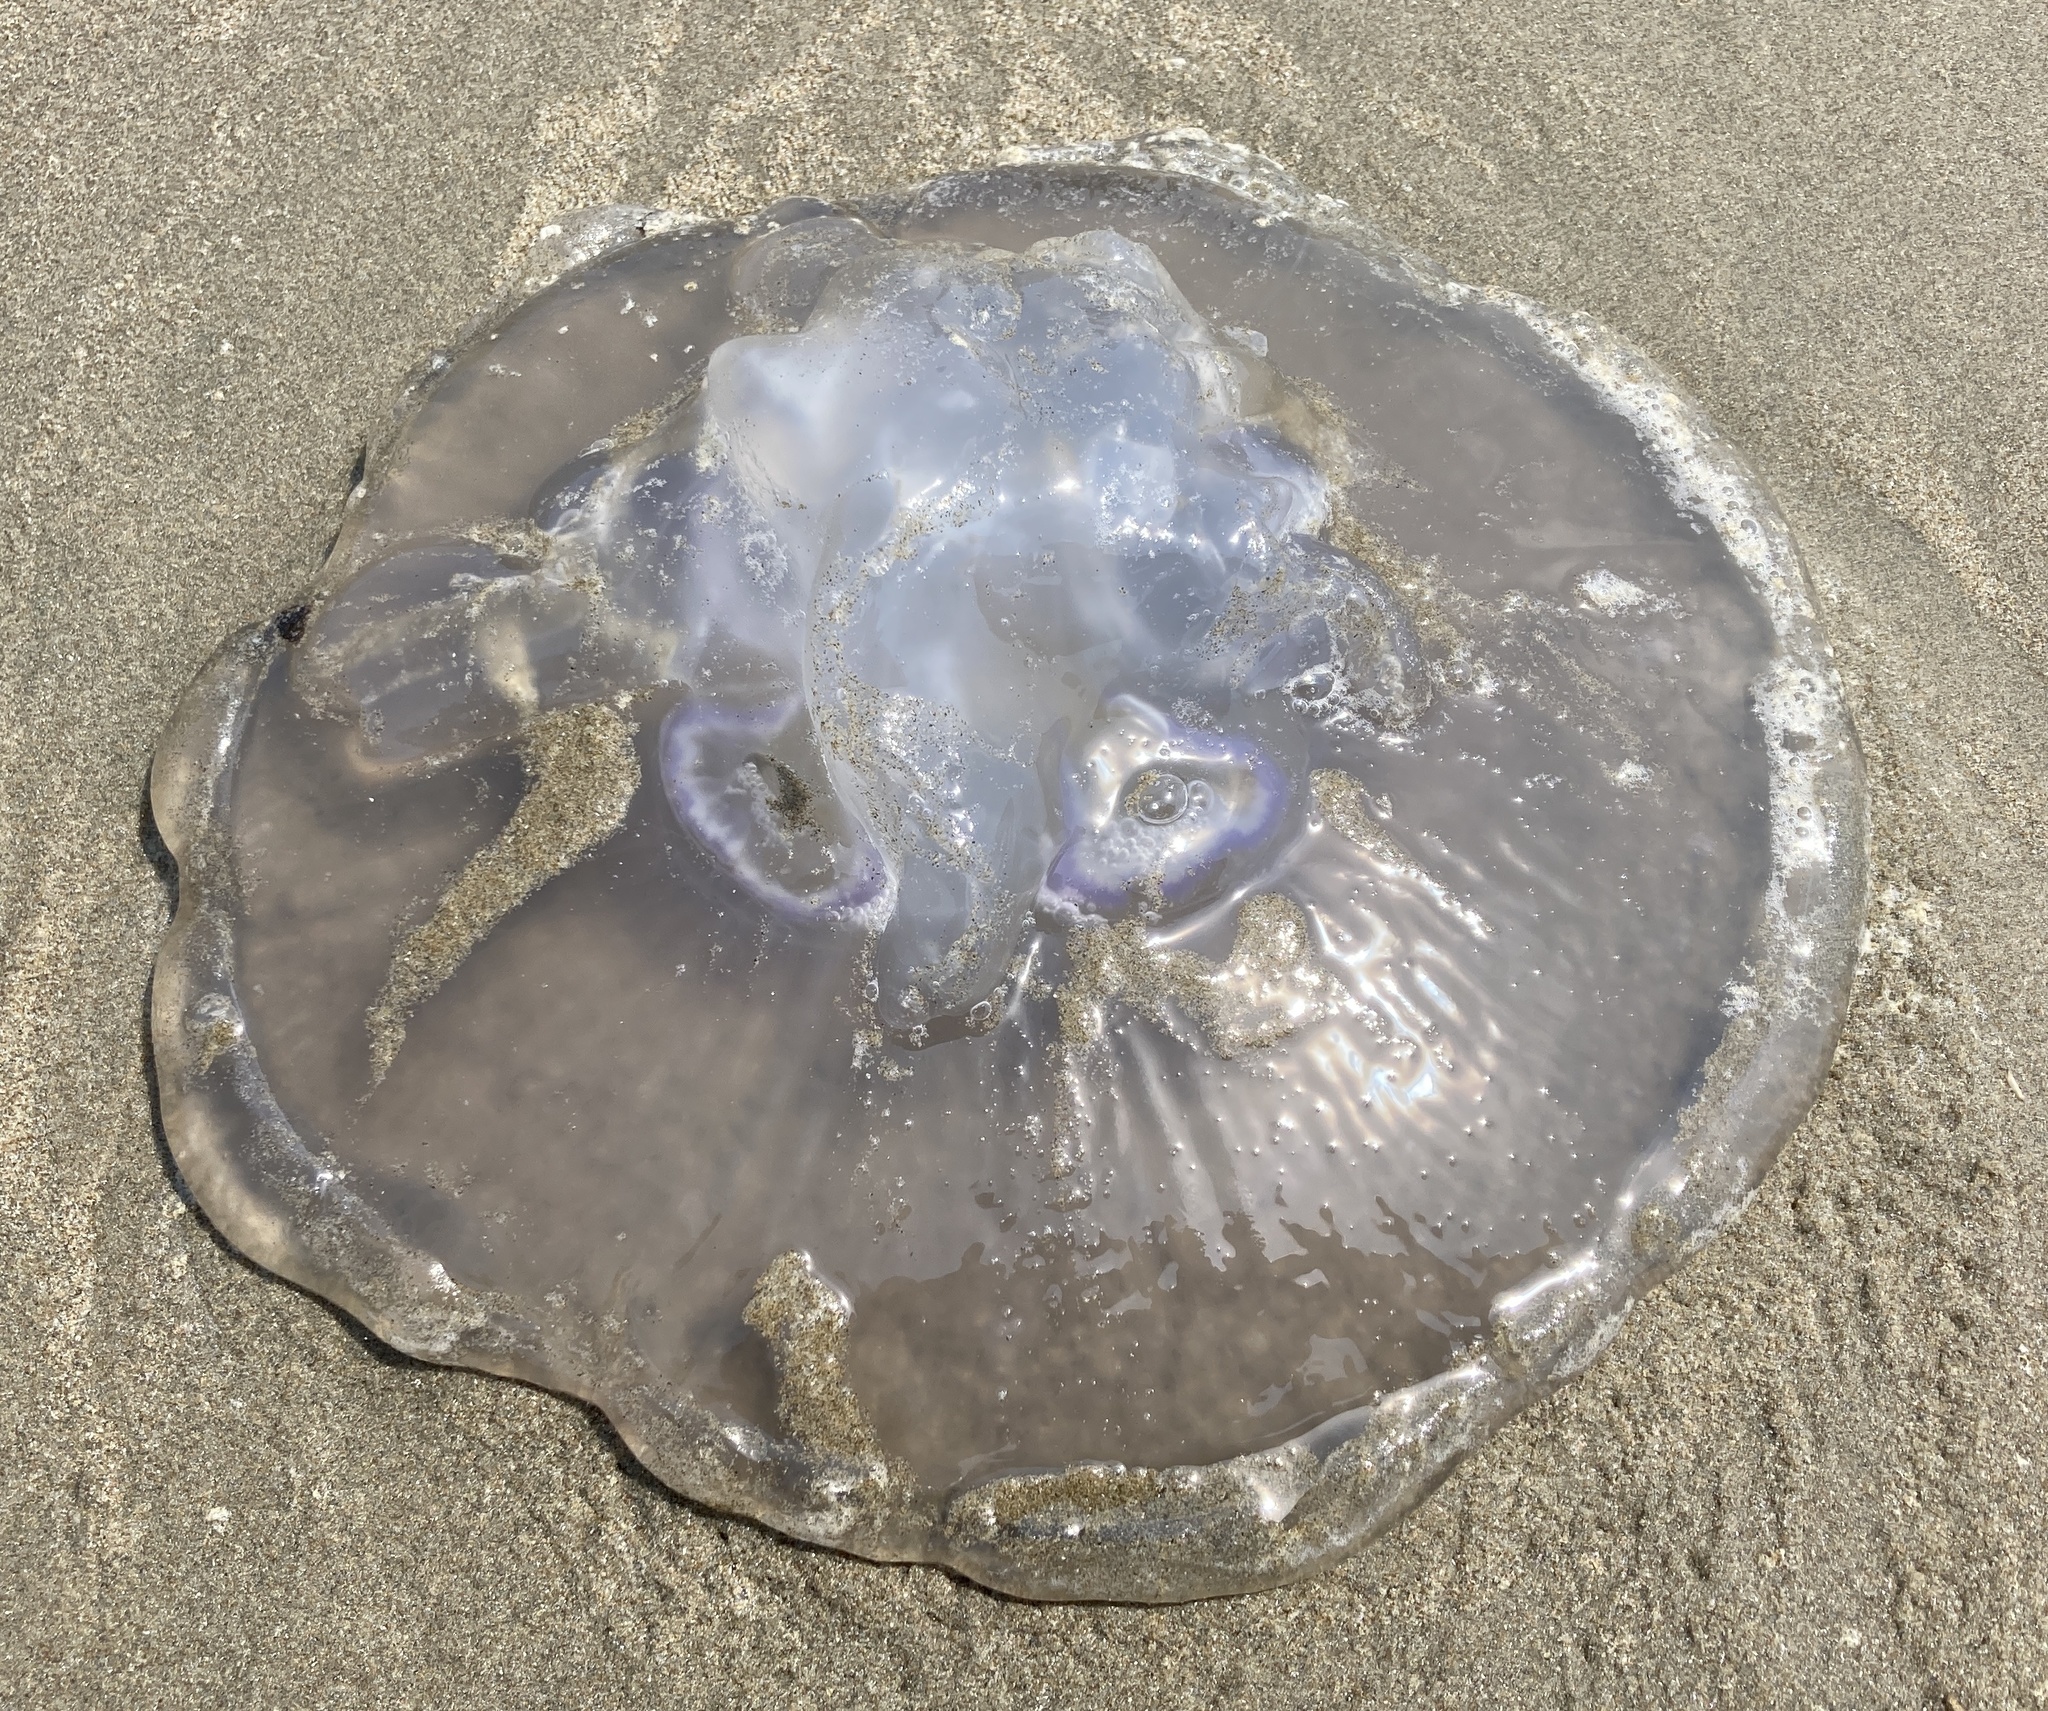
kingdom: Animalia
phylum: Cnidaria
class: Scyphozoa
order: Semaeostomeae
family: Ulmaridae
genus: Aurelia
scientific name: Aurelia labiata
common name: Pacific moon jelly
